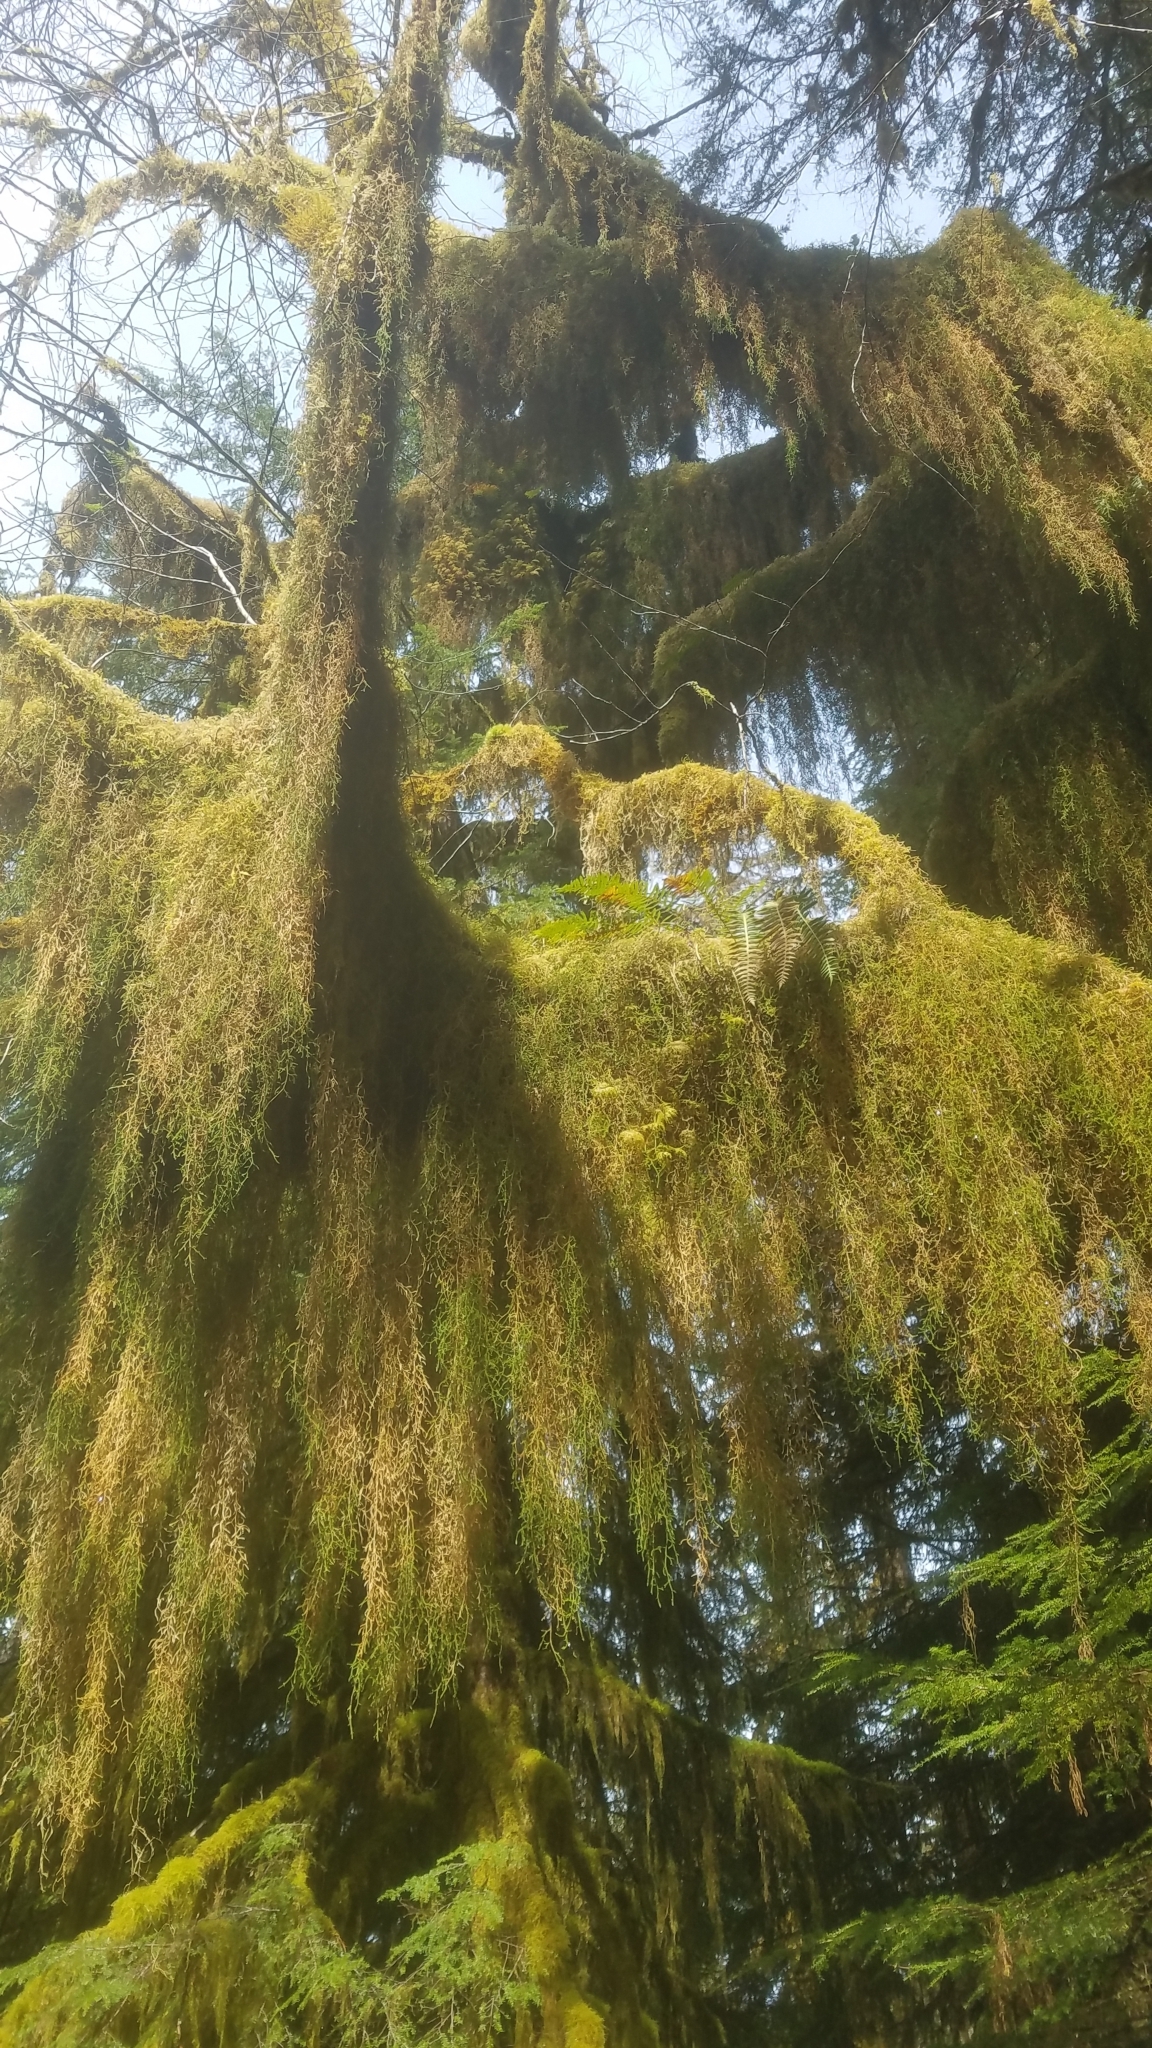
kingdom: Plantae
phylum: Tracheophyta
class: Lycopodiopsida
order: Selaginellales
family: Selaginellaceae
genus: Selaginella
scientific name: Selaginella oregana
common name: Oregon selaginella
